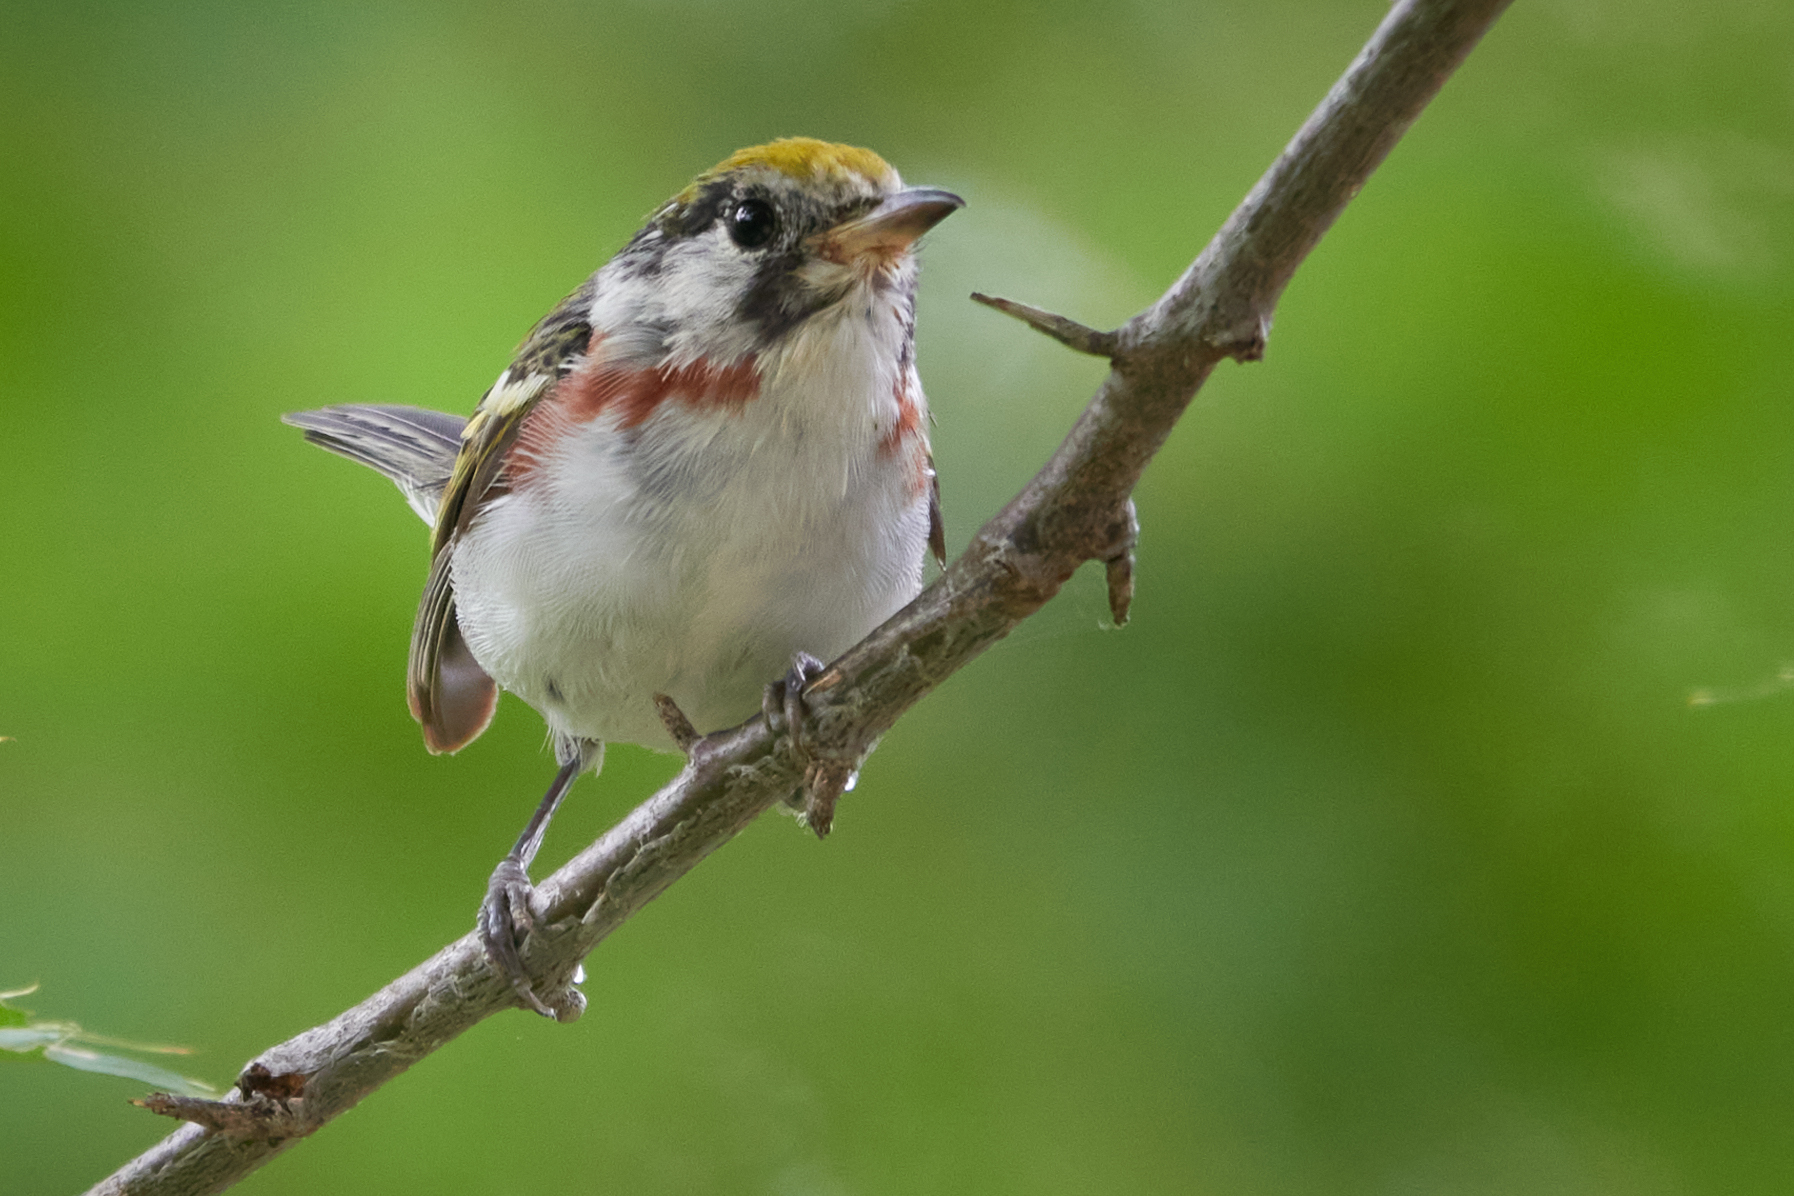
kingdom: Animalia
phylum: Chordata
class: Aves
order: Passeriformes
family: Parulidae
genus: Setophaga
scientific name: Setophaga pensylvanica
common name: Chestnut-sided warbler
